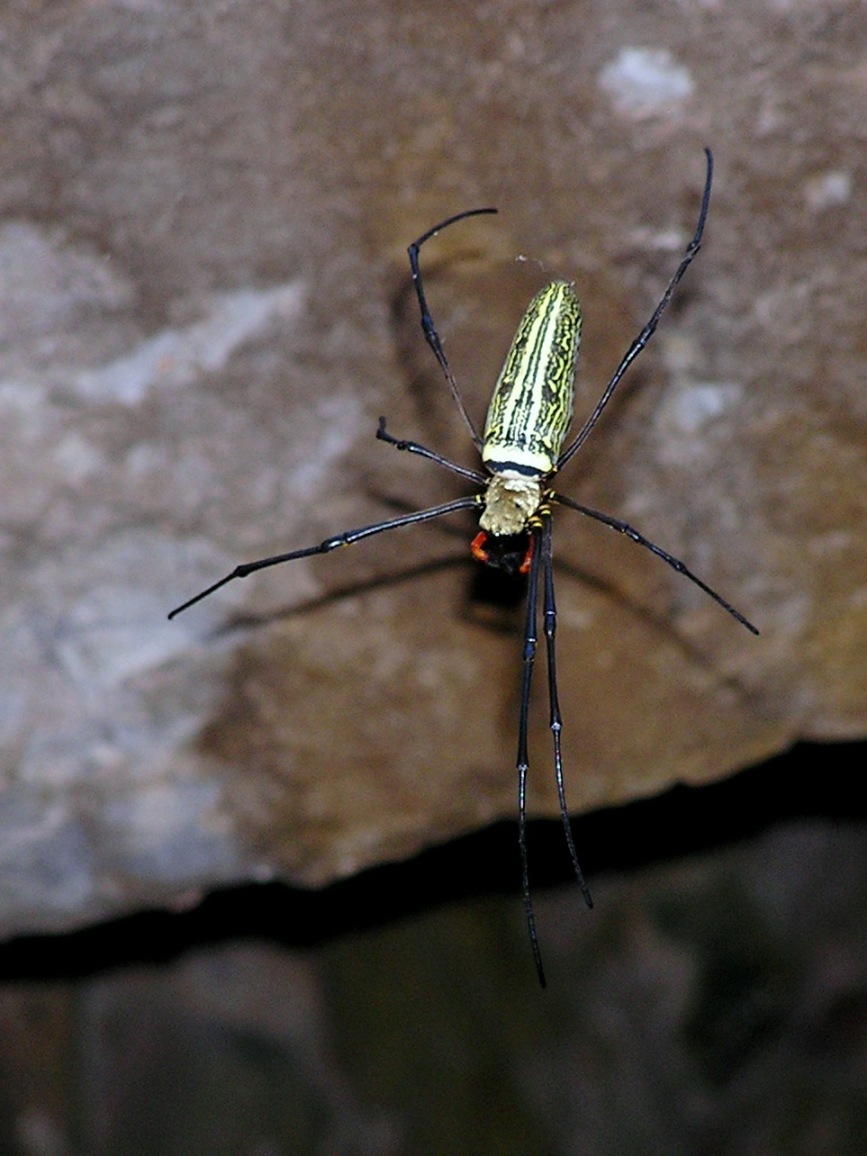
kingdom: Animalia
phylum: Arthropoda
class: Arachnida
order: Araneae
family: Araneidae
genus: Nephila
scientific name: Nephila pilipes
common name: Giant golden orb weaver
